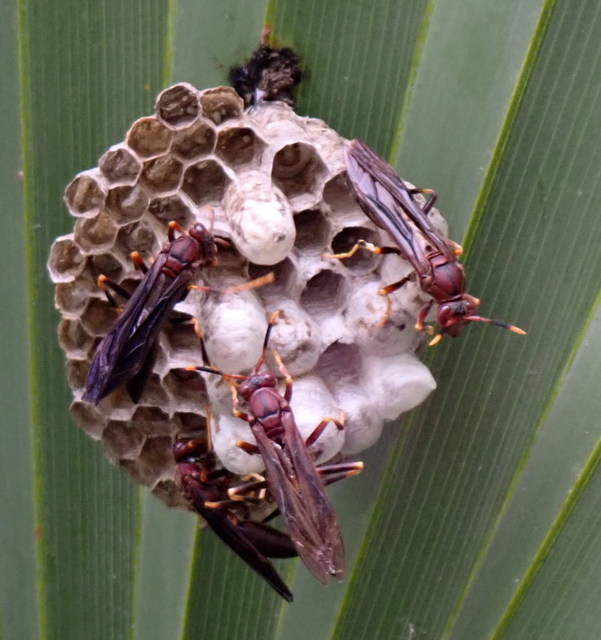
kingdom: Animalia
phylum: Arthropoda
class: Insecta
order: Hymenoptera
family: Eumenidae
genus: Polistes
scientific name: Polistes annularis
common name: Ringed paper wasp
